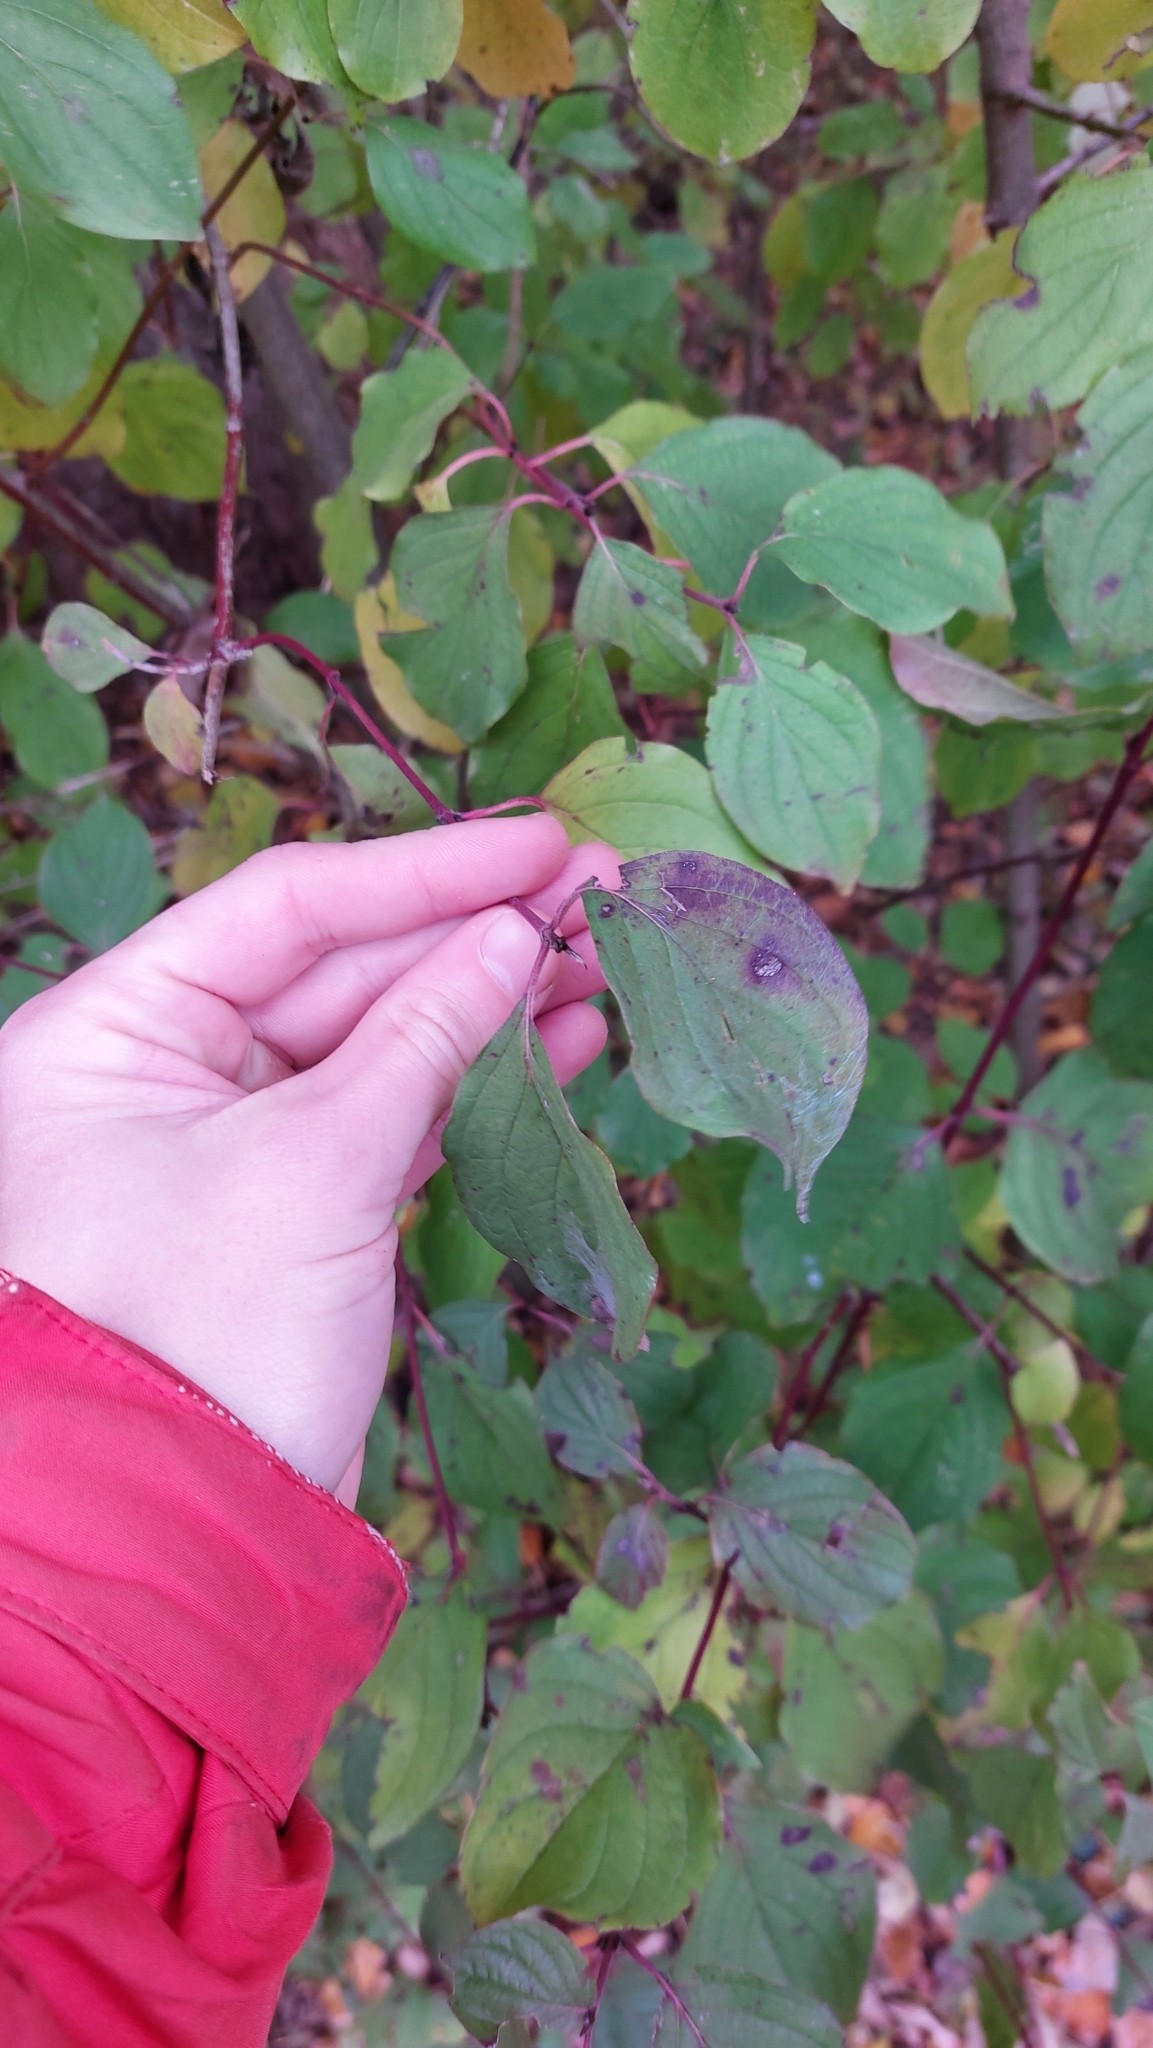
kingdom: Plantae
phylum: Tracheophyta
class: Magnoliopsida
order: Cornales
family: Cornaceae
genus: Cornus
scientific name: Cornus sanguinea
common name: Dogwood
